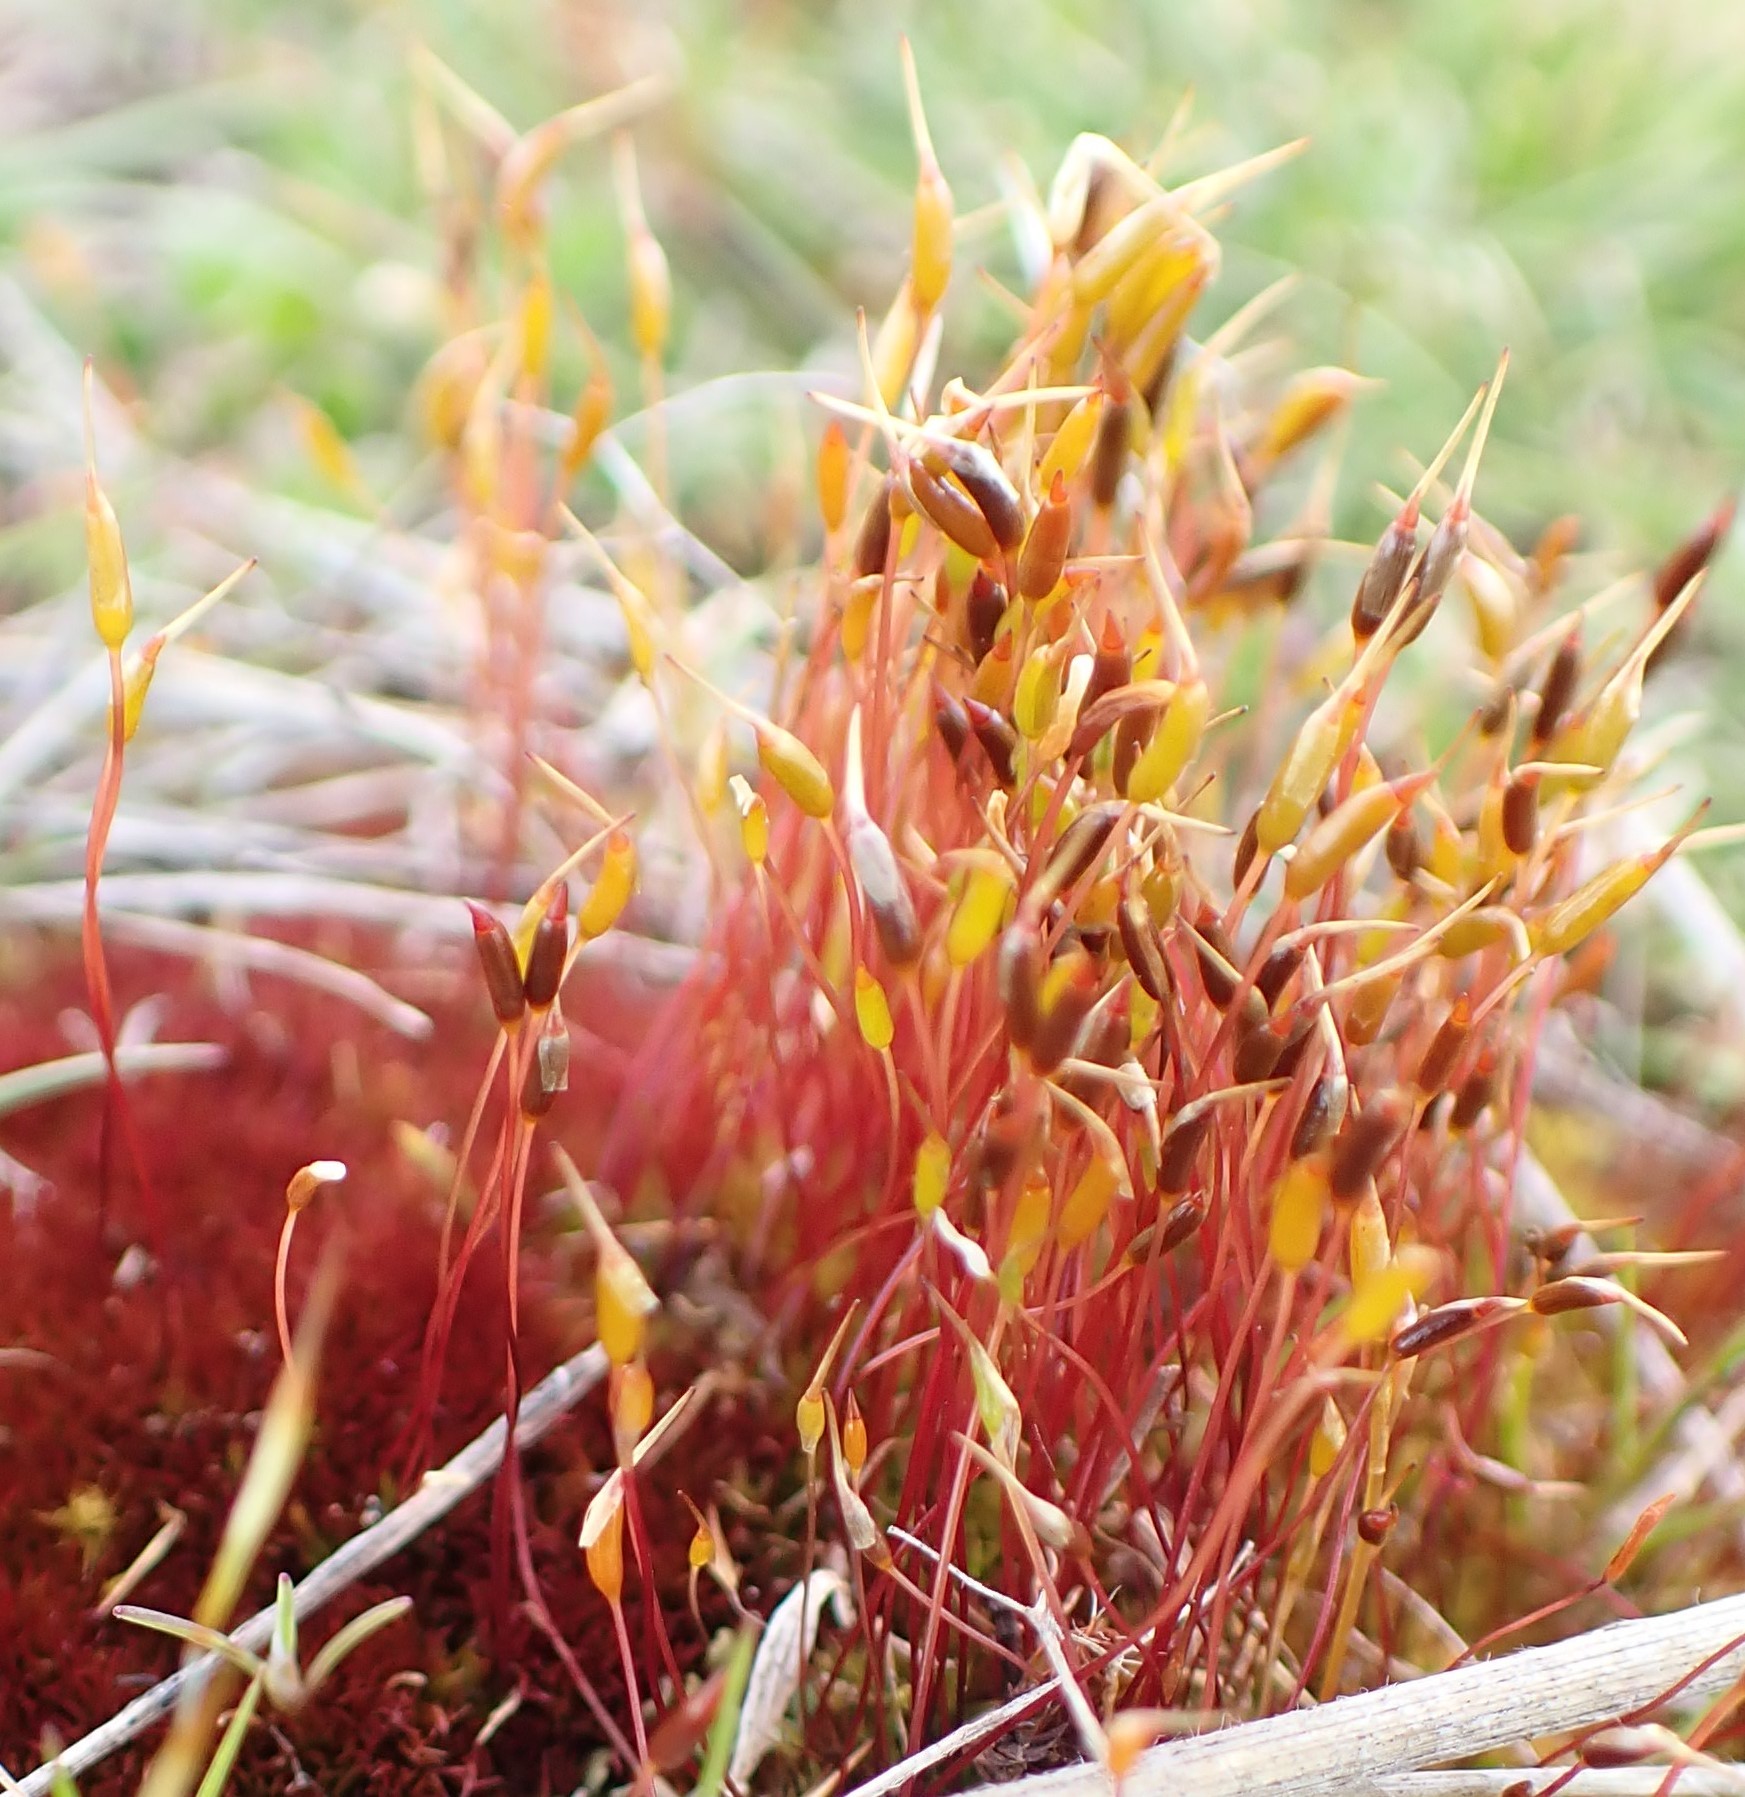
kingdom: Plantae
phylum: Bryophyta
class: Bryopsida
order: Dicranales
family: Ditrichaceae
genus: Ceratodon
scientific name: Ceratodon purpureus
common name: Redshank
